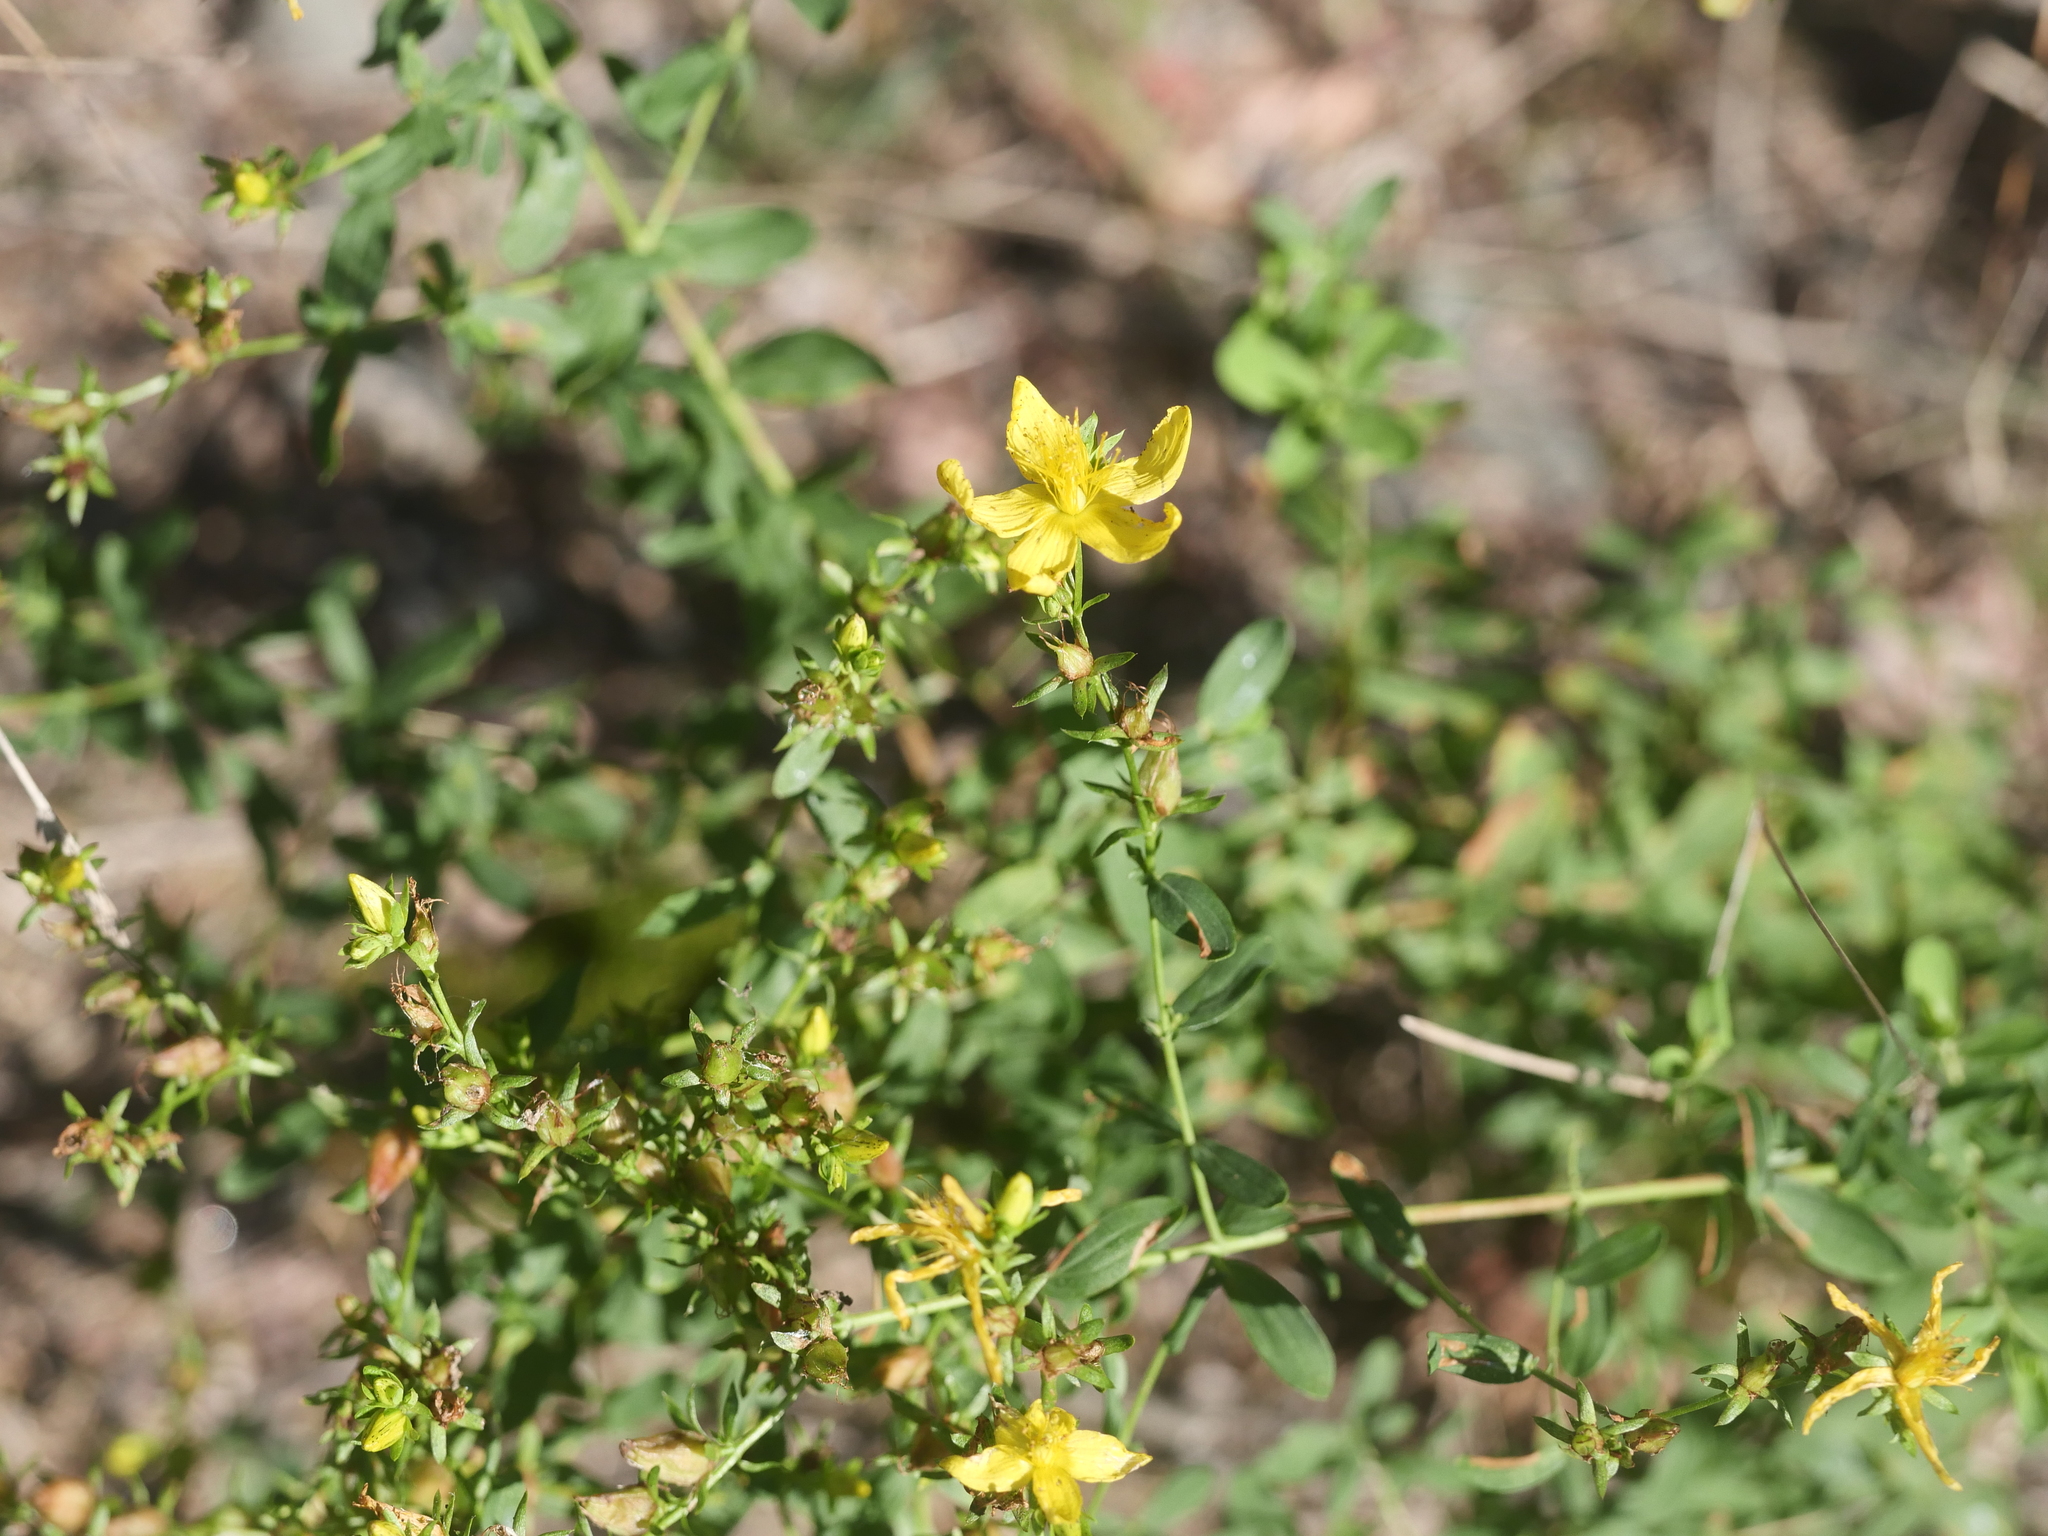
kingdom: Plantae
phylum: Tracheophyta
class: Magnoliopsida
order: Malpighiales
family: Hypericaceae
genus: Hypericum
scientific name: Hypericum perforatum
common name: Common st. johnswort
